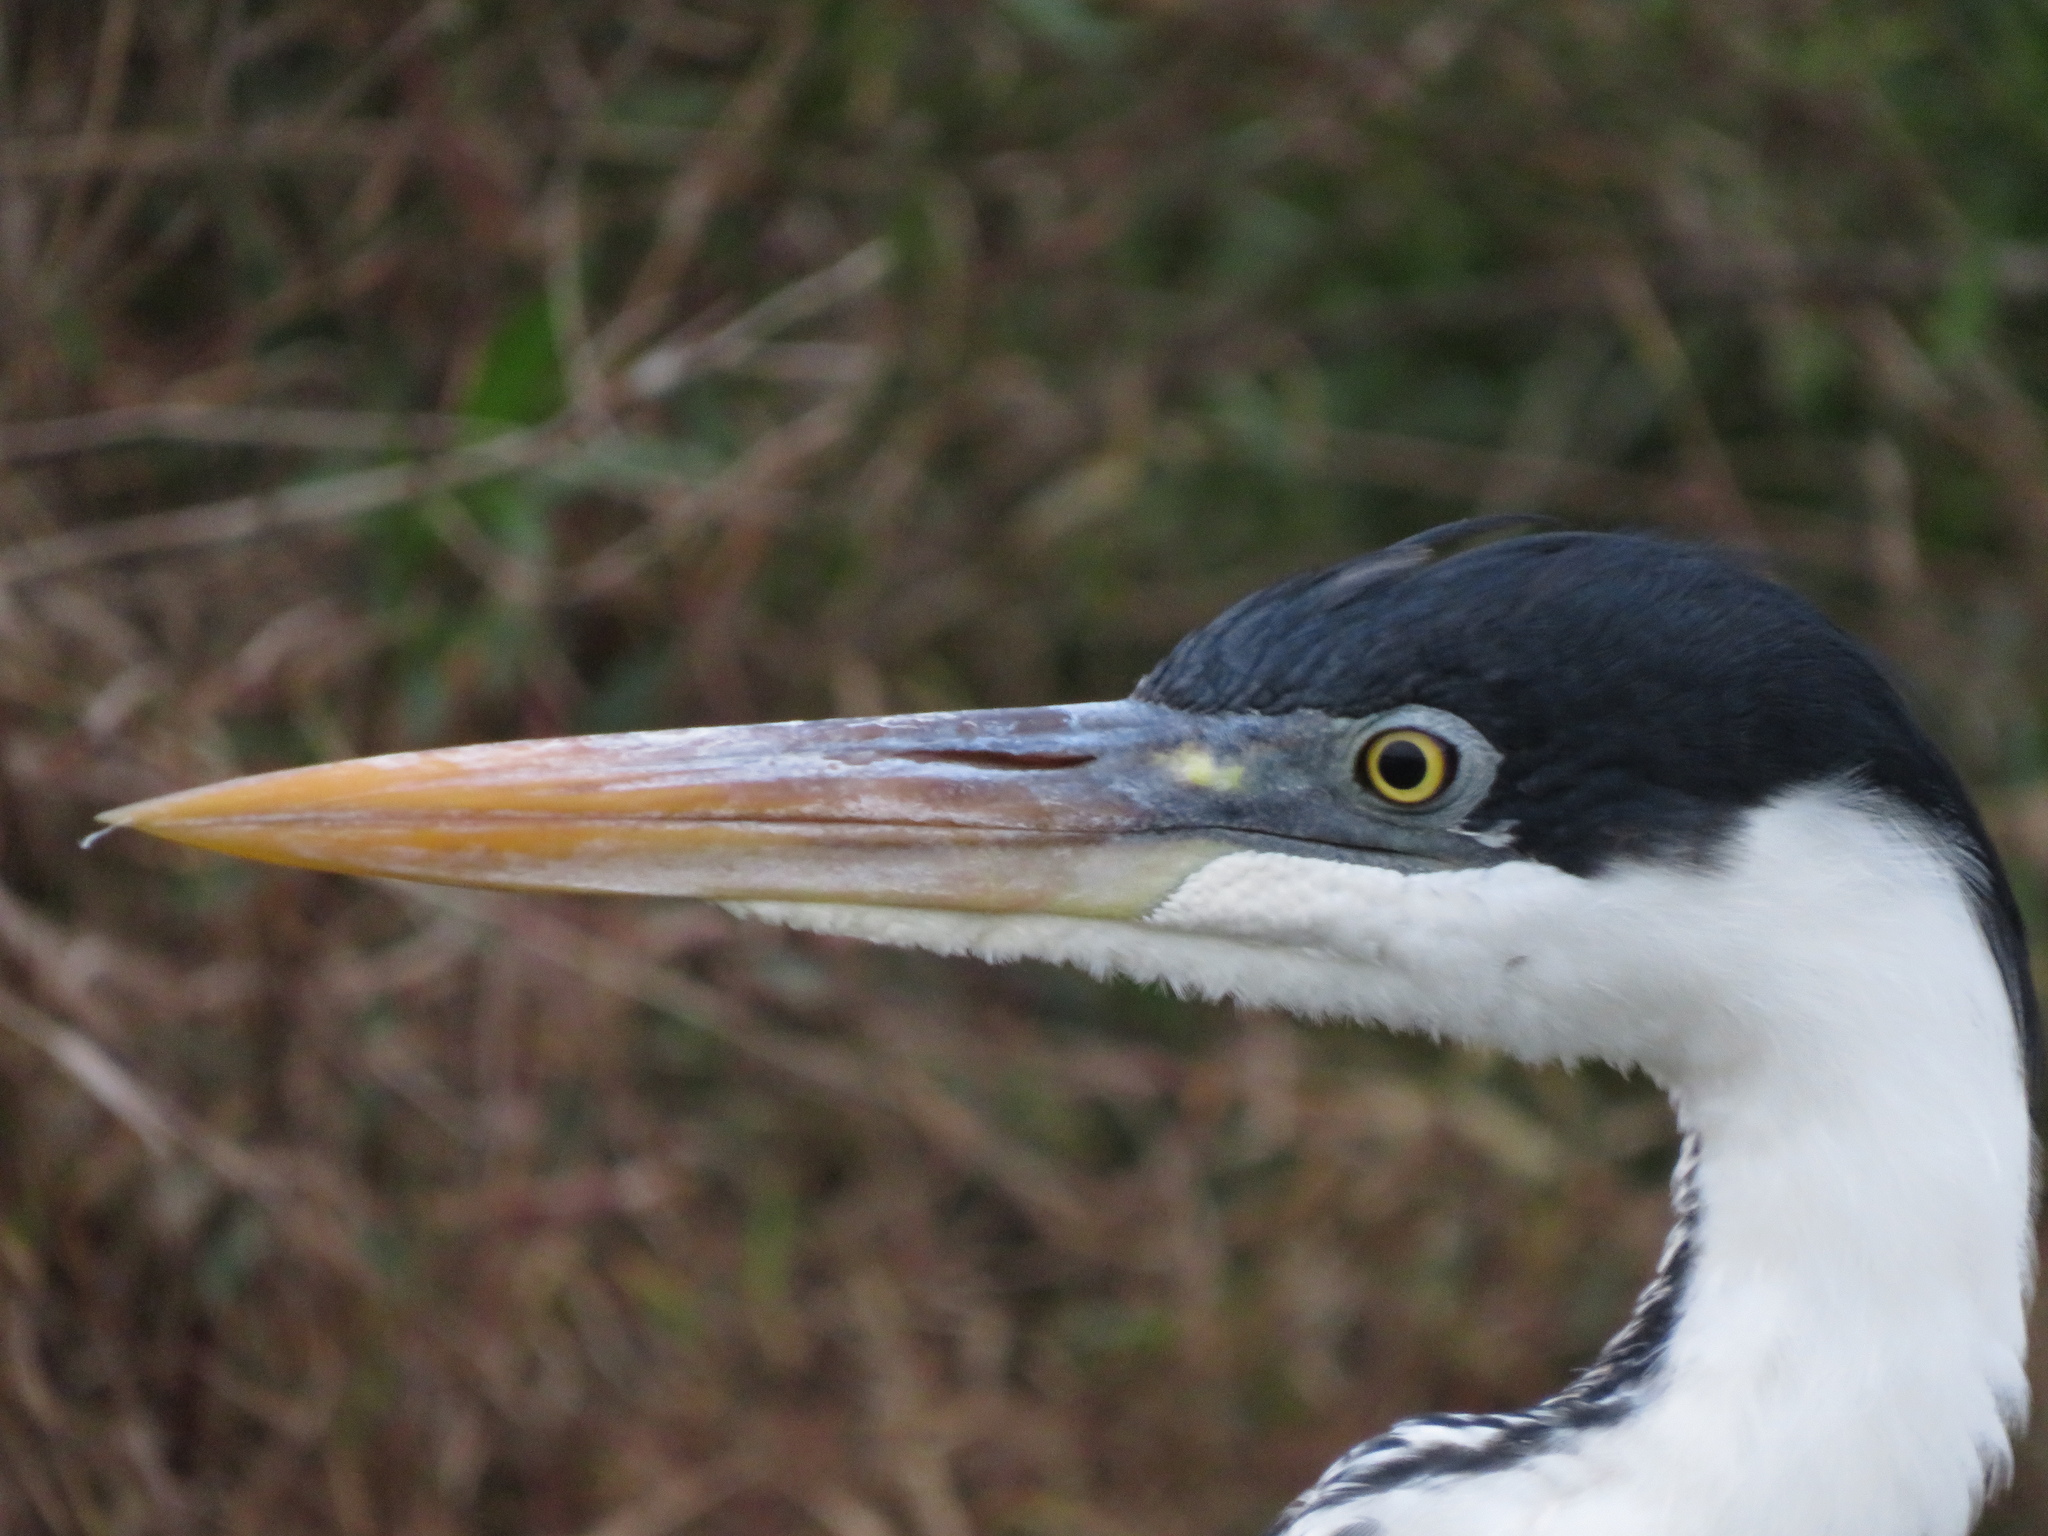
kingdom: Animalia
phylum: Chordata
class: Aves
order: Pelecaniformes
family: Ardeidae
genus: Ardea
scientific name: Ardea cocoi
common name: Cocoi heron
